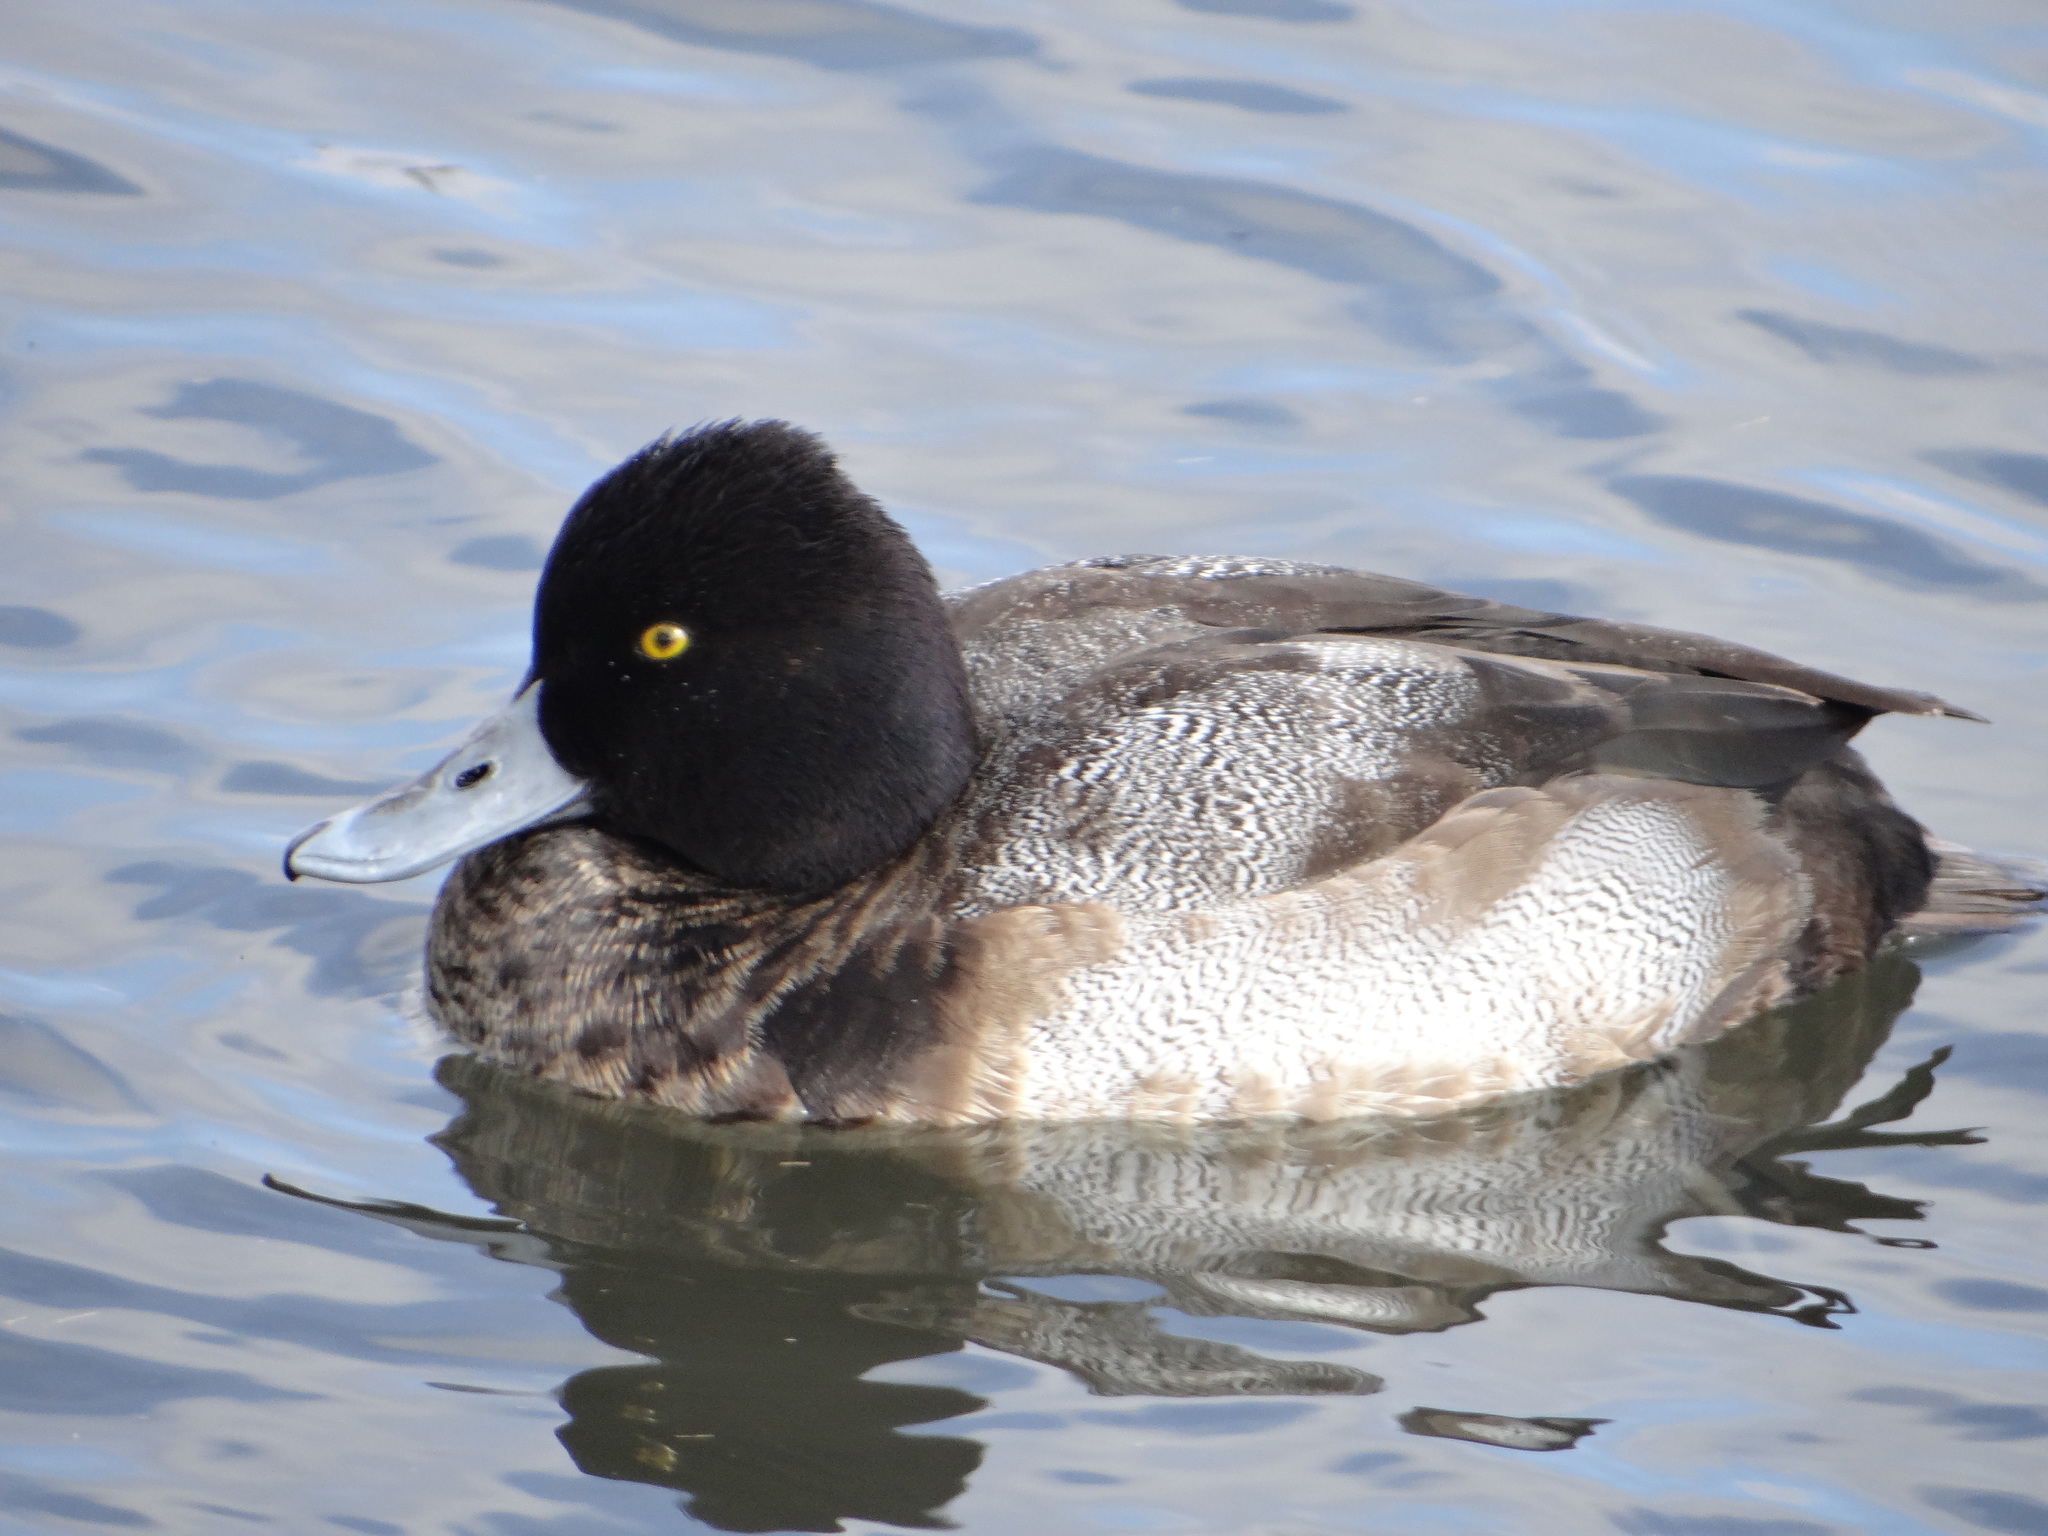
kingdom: Animalia
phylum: Chordata
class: Aves
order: Anseriformes
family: Anatidae
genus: Aythya
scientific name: Aythya affinis
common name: Lesser scaup
